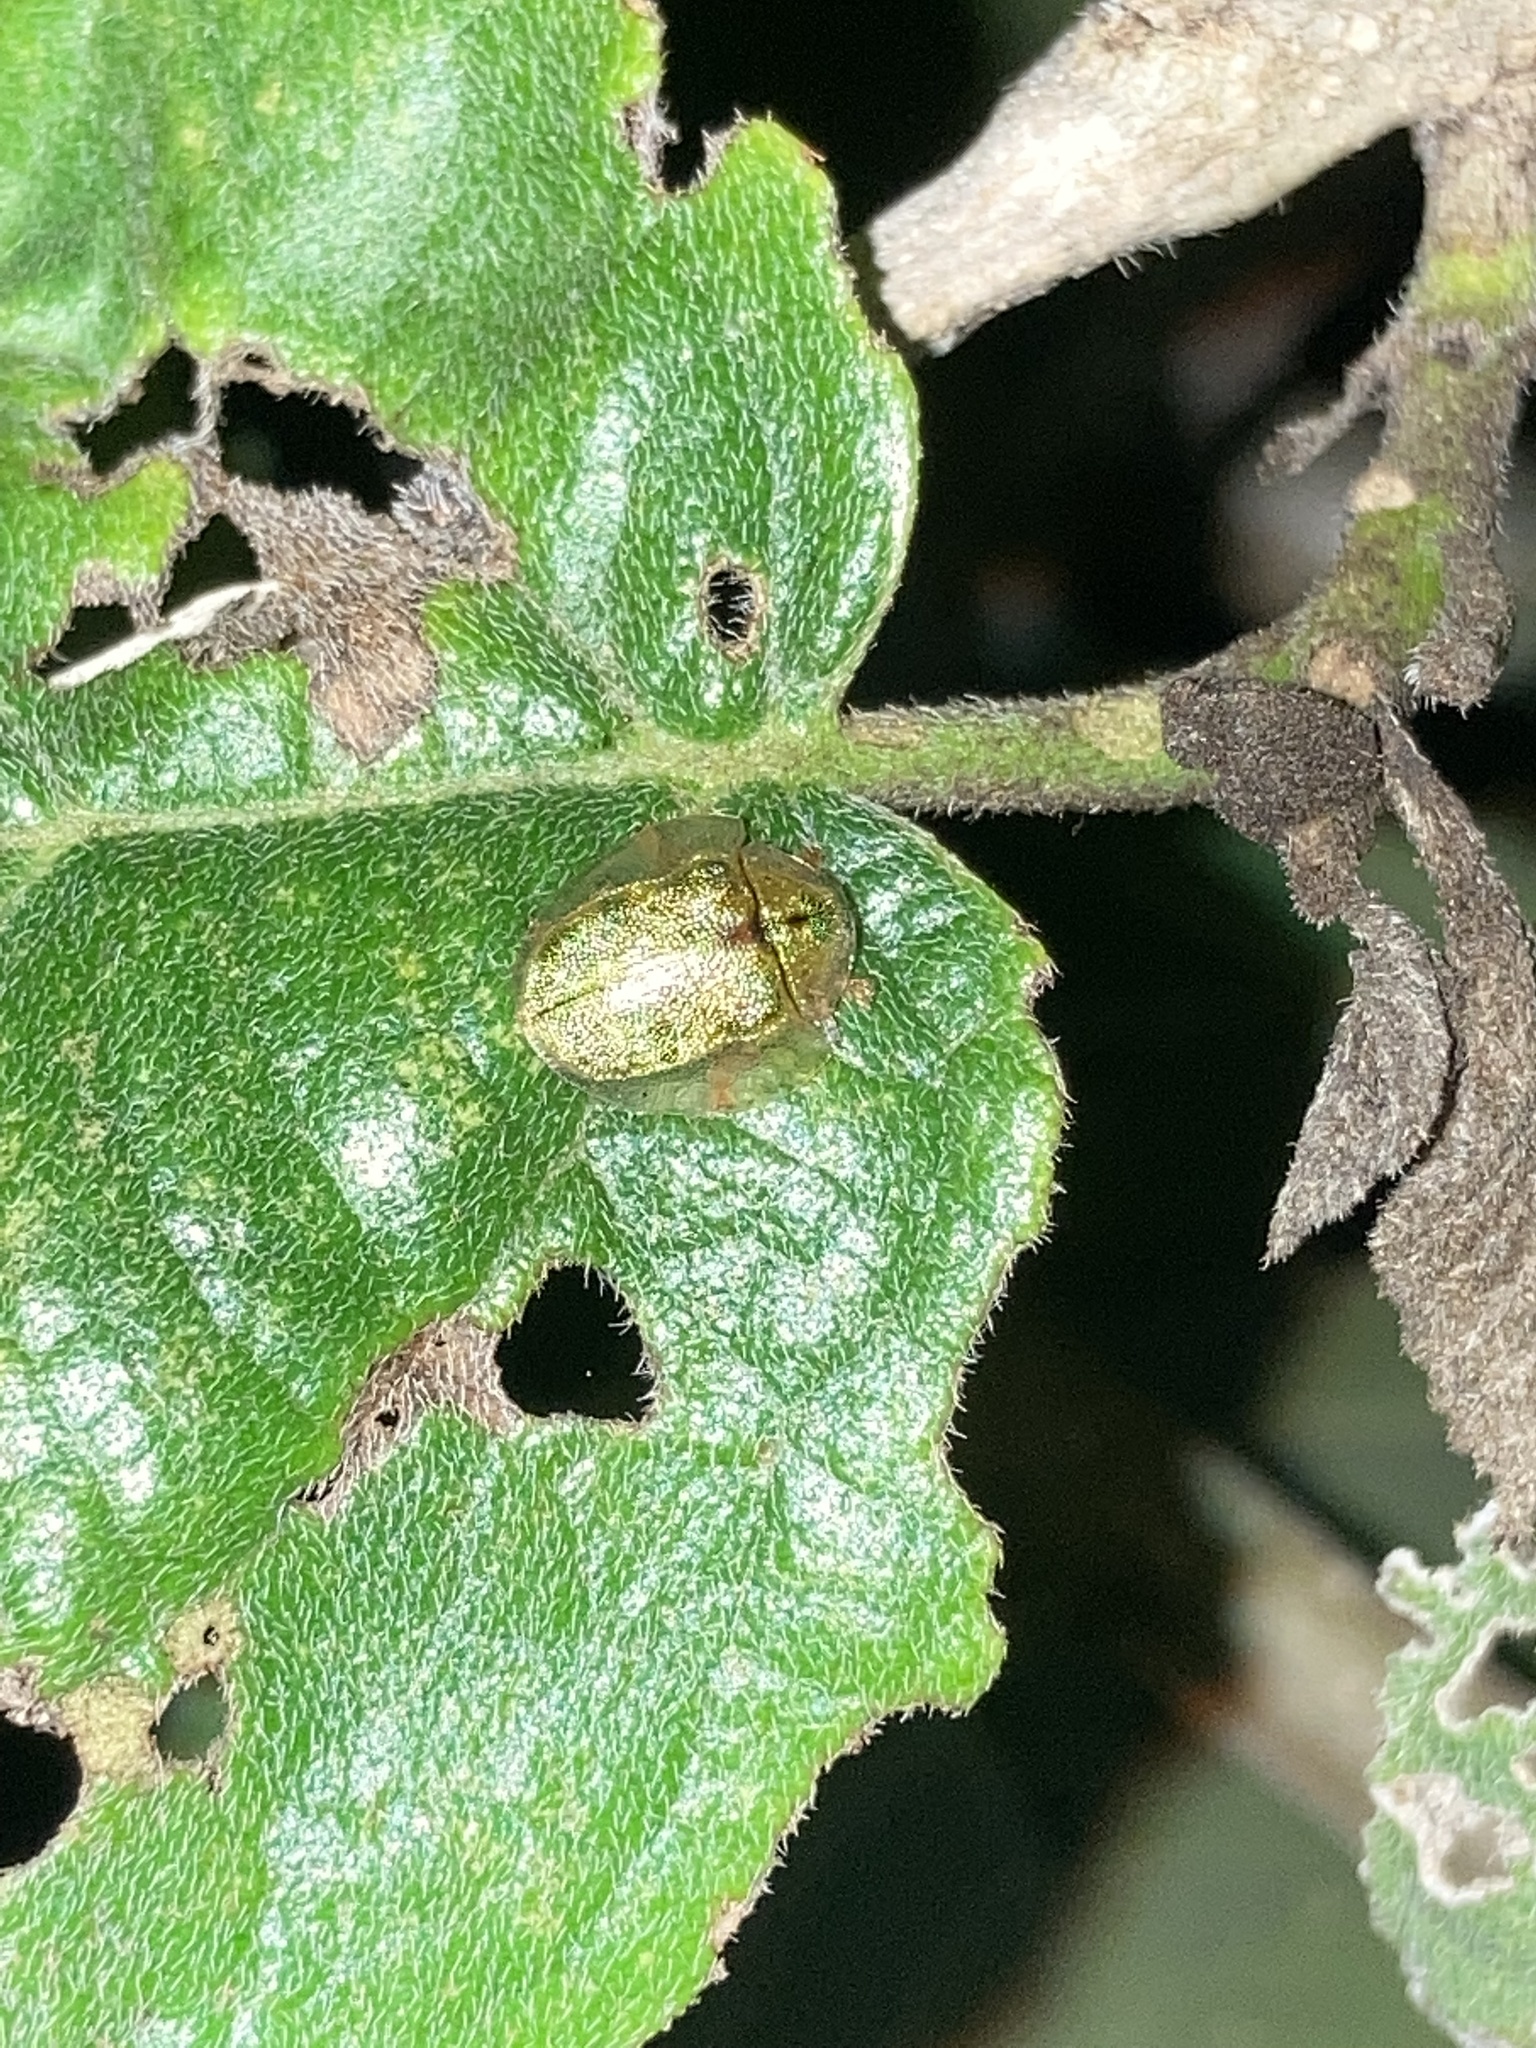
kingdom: Animalia
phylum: Arthropoda
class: Insecta
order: Coleoptera
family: Chrysomelidae
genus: Eurypepla
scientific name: Eurypepla calochroma
